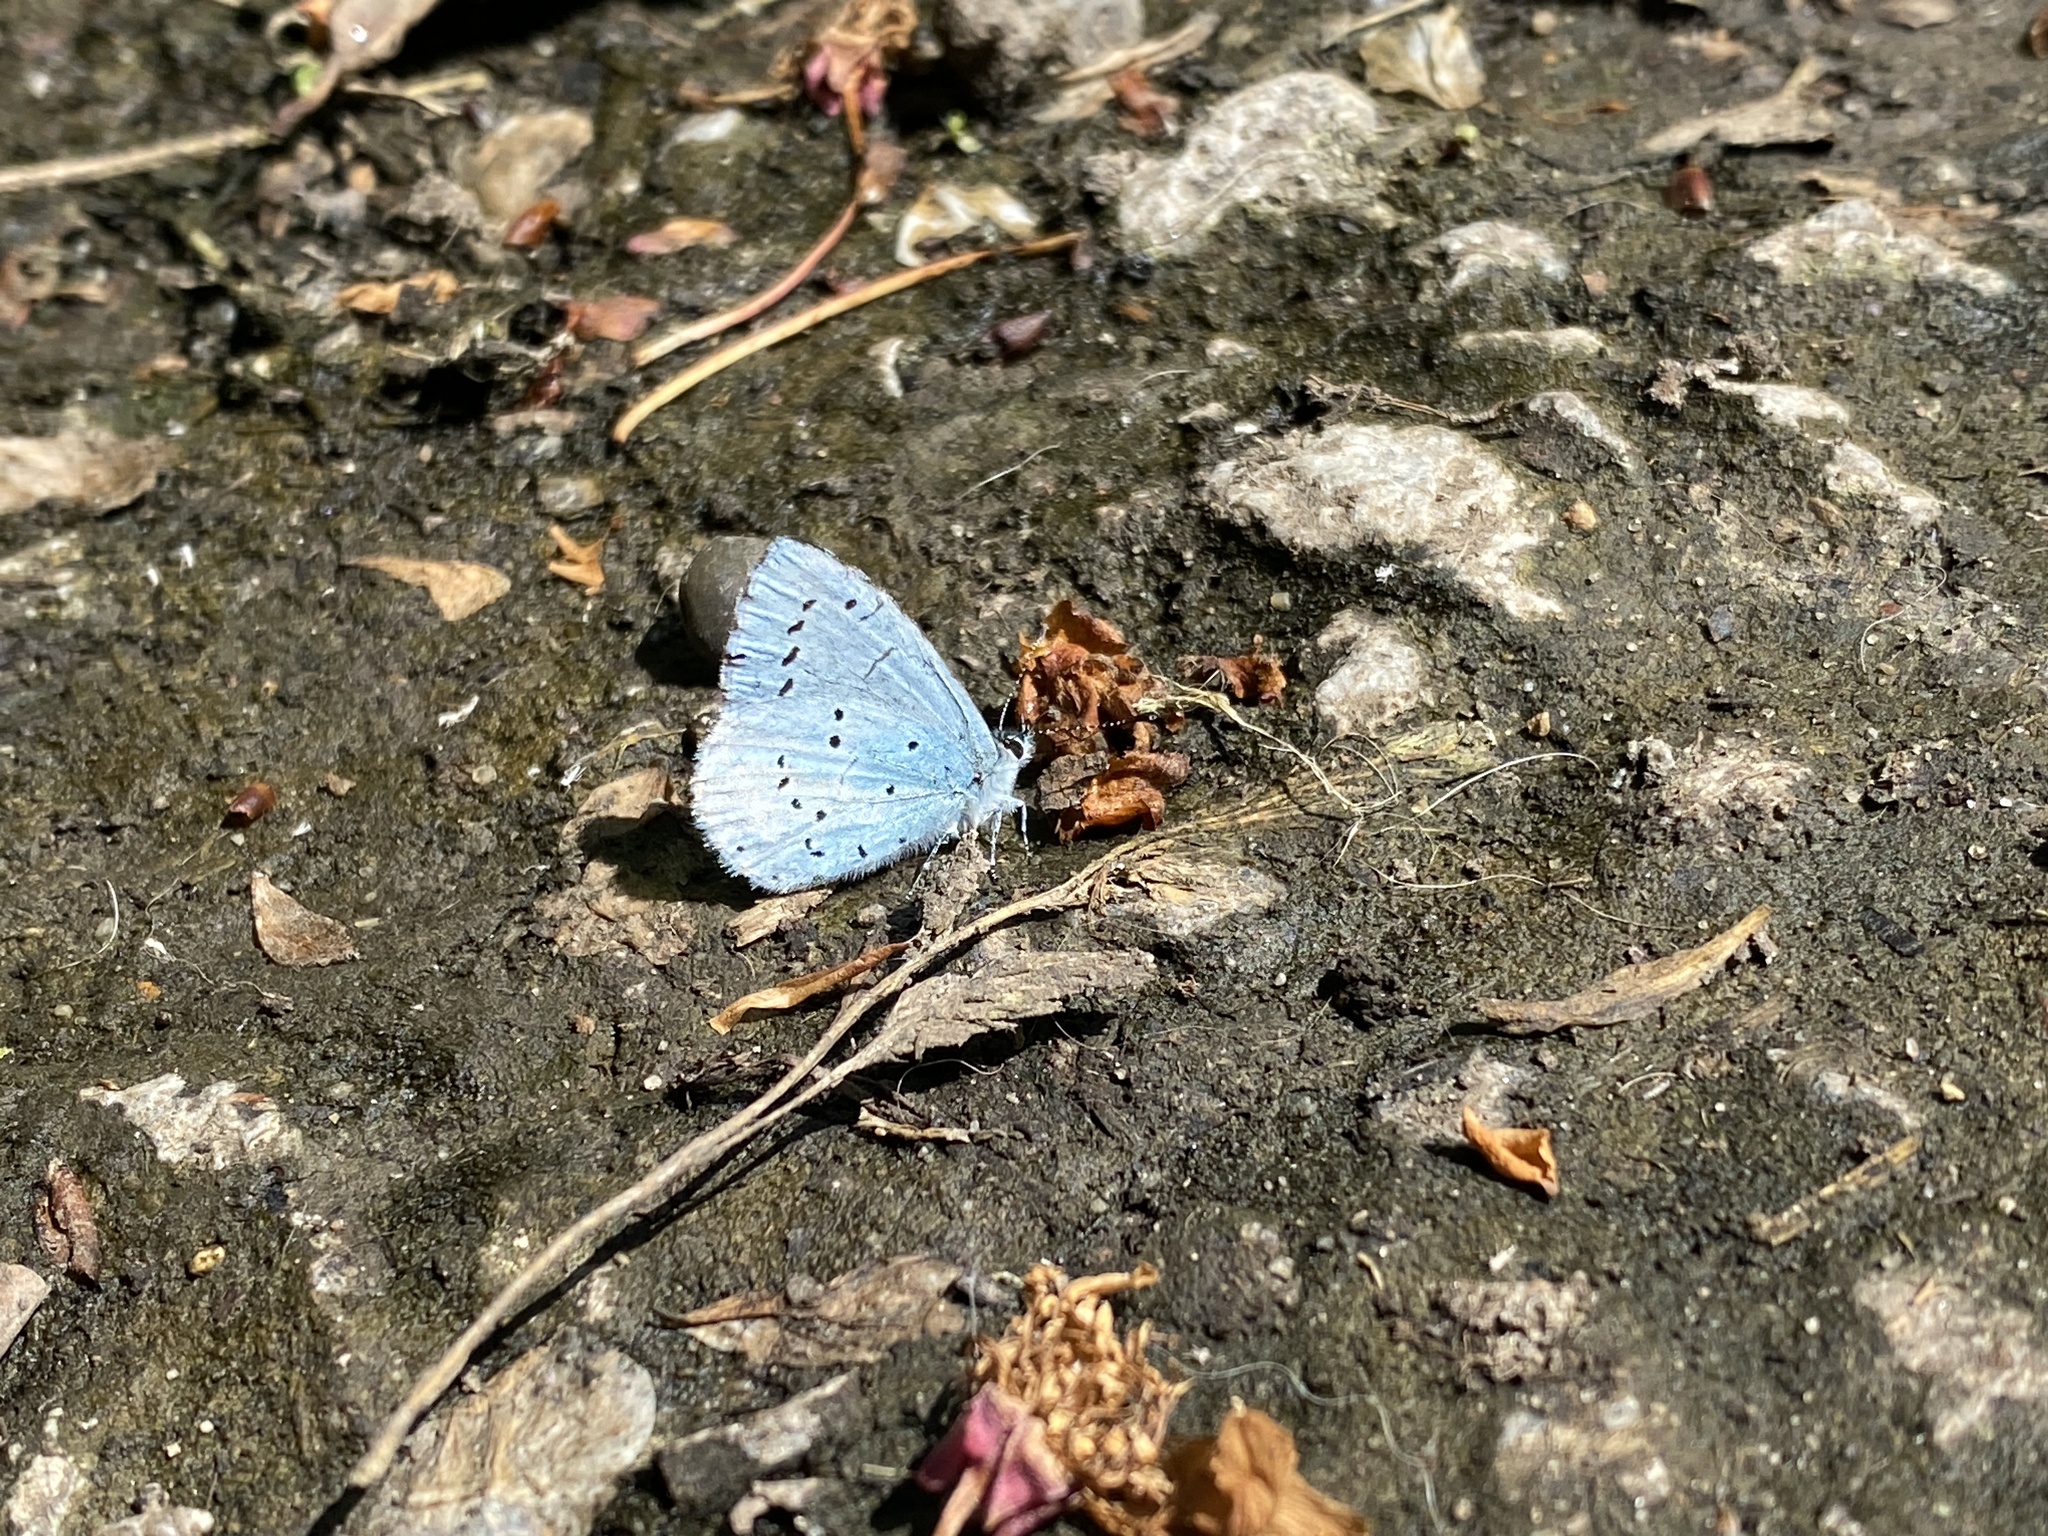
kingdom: Animalia
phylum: Arthropoda
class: Insecta
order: Lepidoptera
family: Lycaenidae
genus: Celastrina
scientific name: Celastrina argiolus
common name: Holly blue
